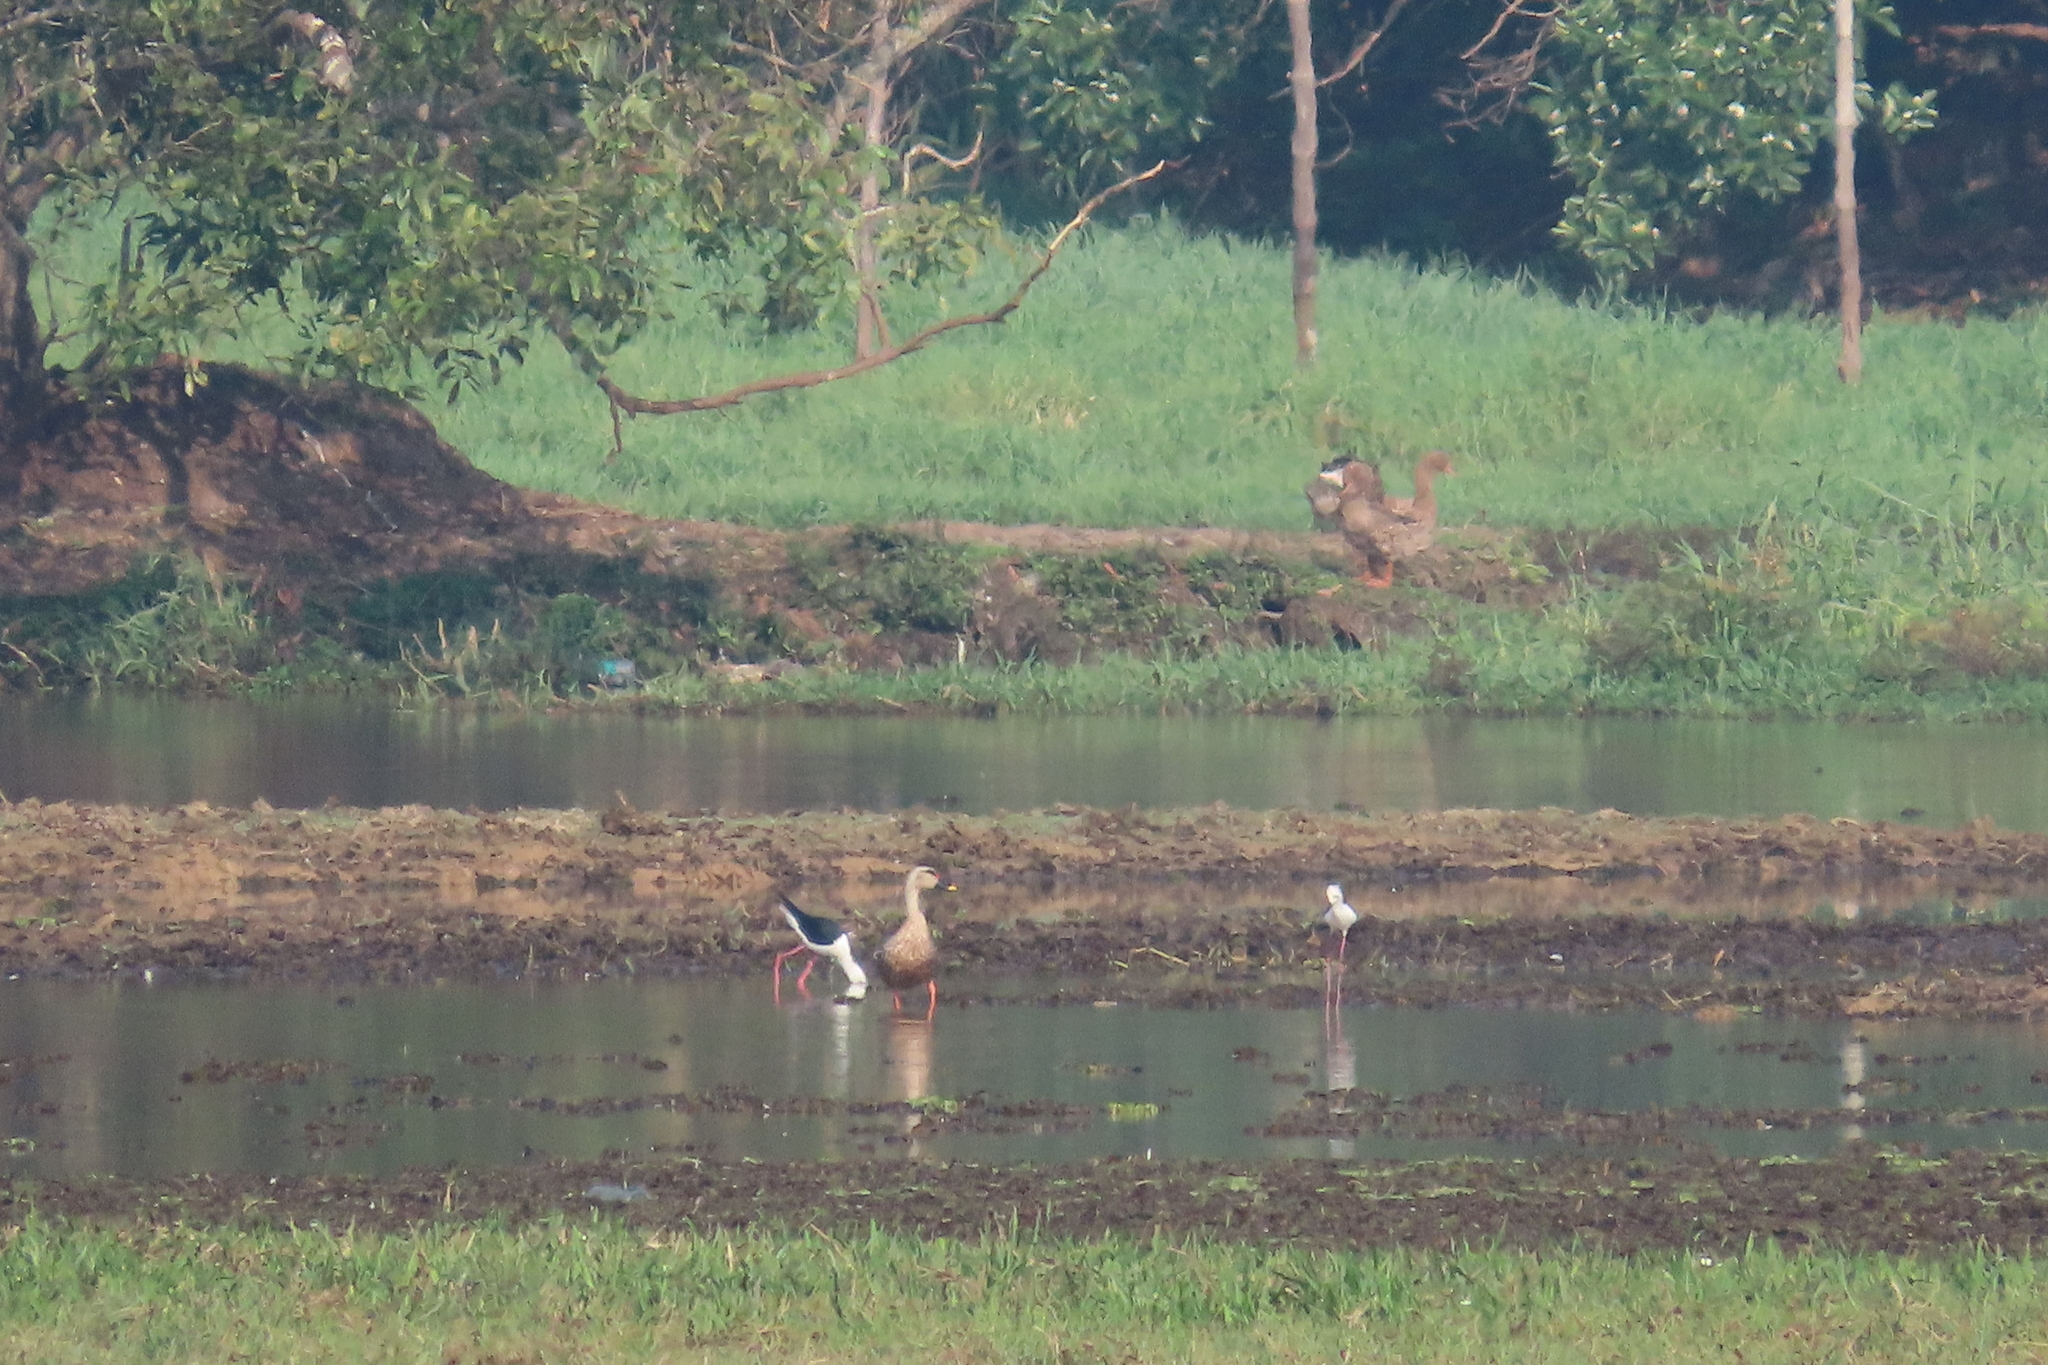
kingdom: Animalia
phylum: Chordata
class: Aves
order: Charadriiformes
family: Recurvirostridae
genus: Himantopus
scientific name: Himantopus himantopus
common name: Black-winged stilt
